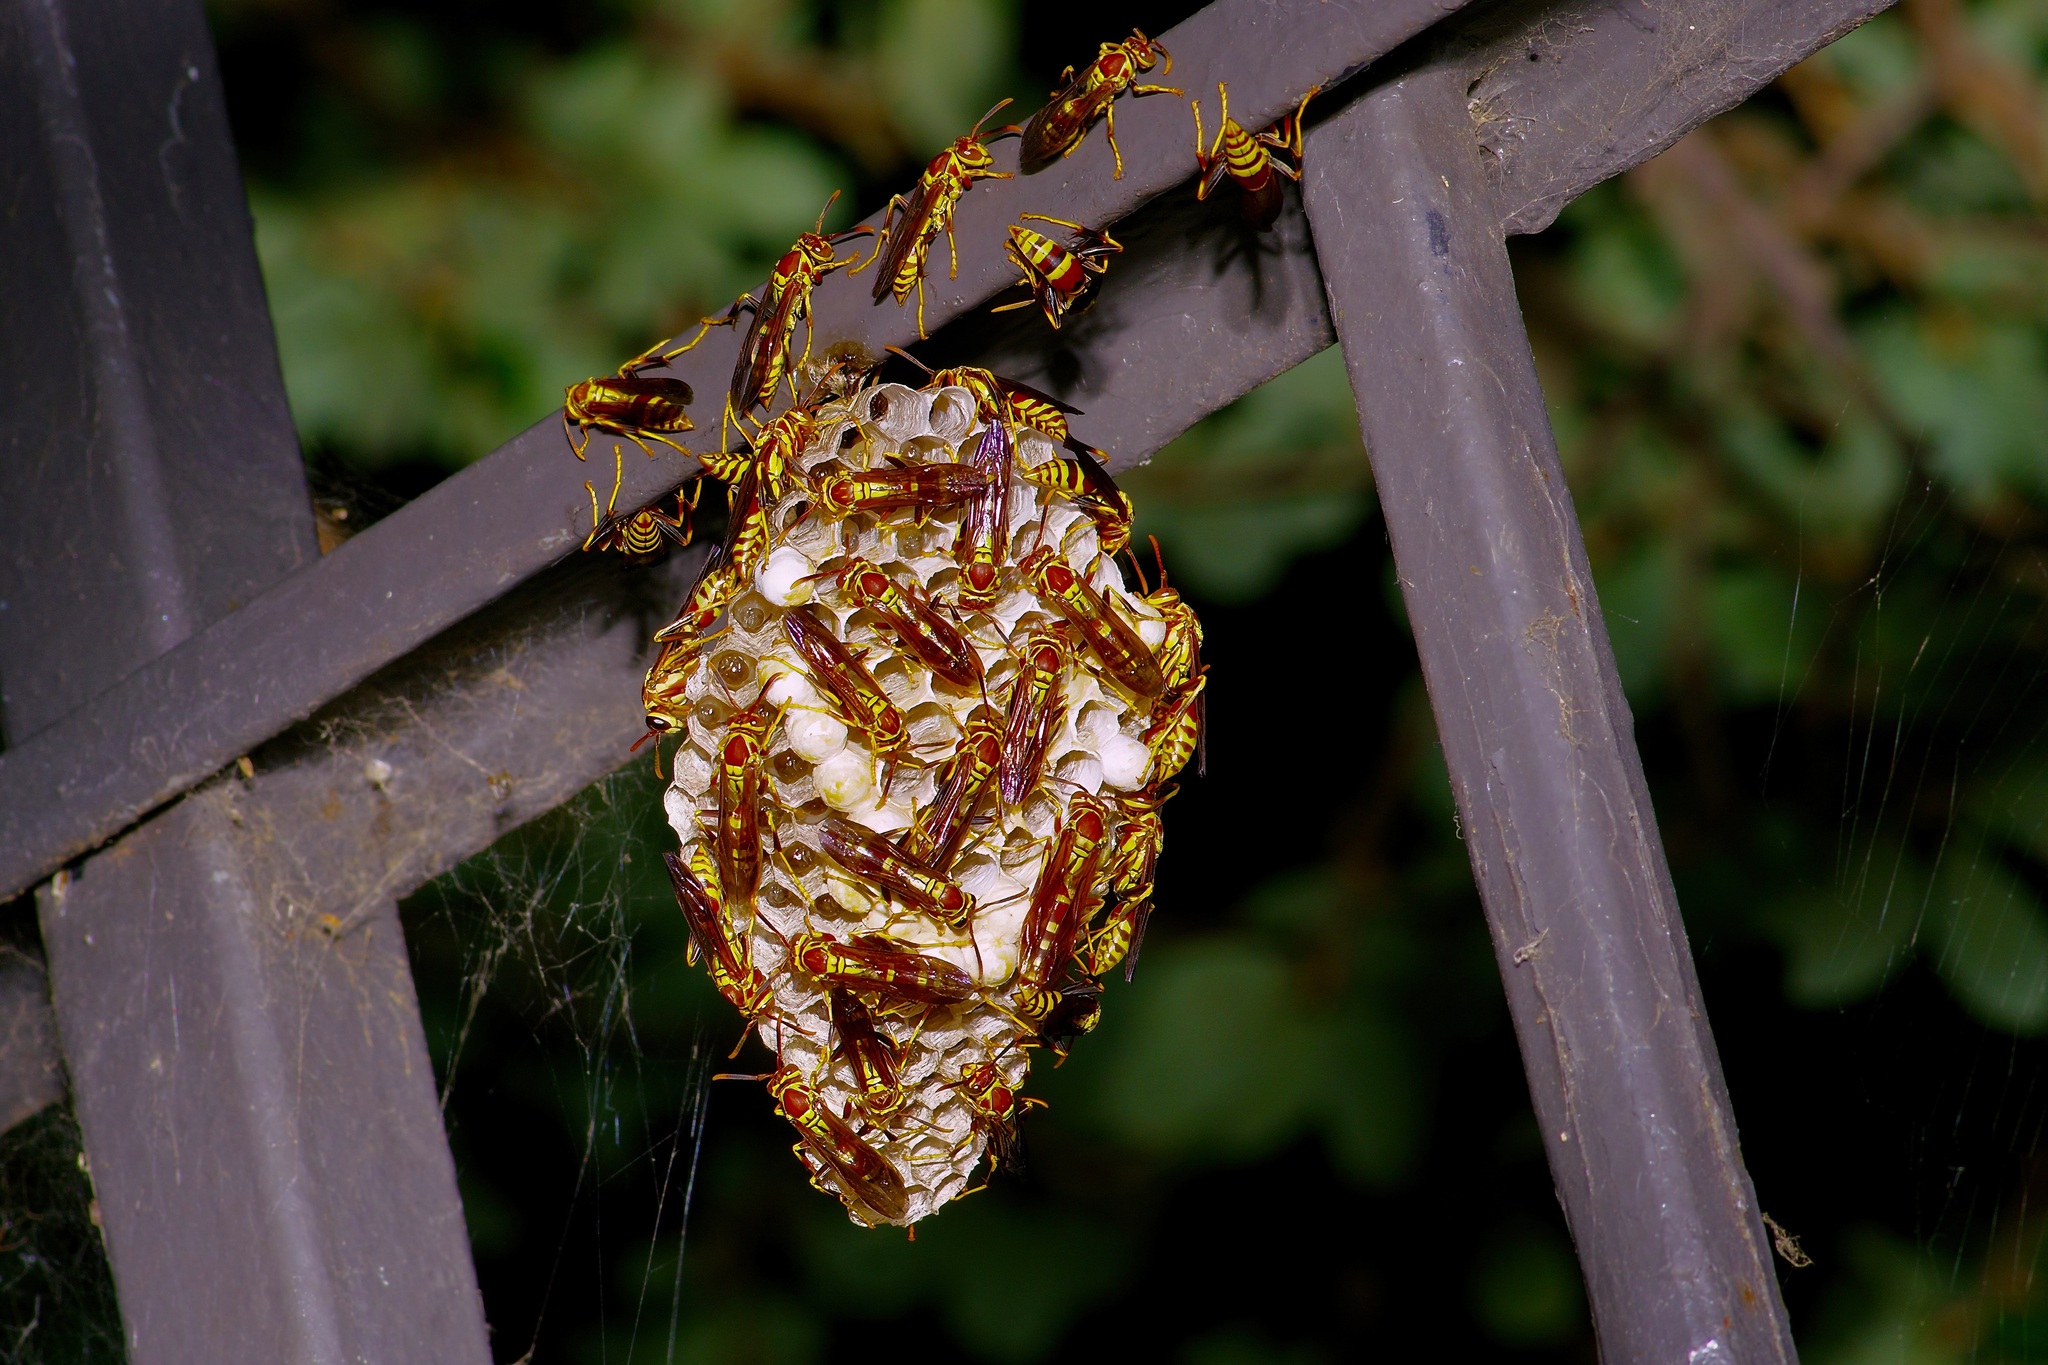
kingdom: Animalia
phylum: Arthropoda
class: Insecta
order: Hymenoptera
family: Eumenidae
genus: Polistes
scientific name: Polistes exclamans
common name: Paper wasp
